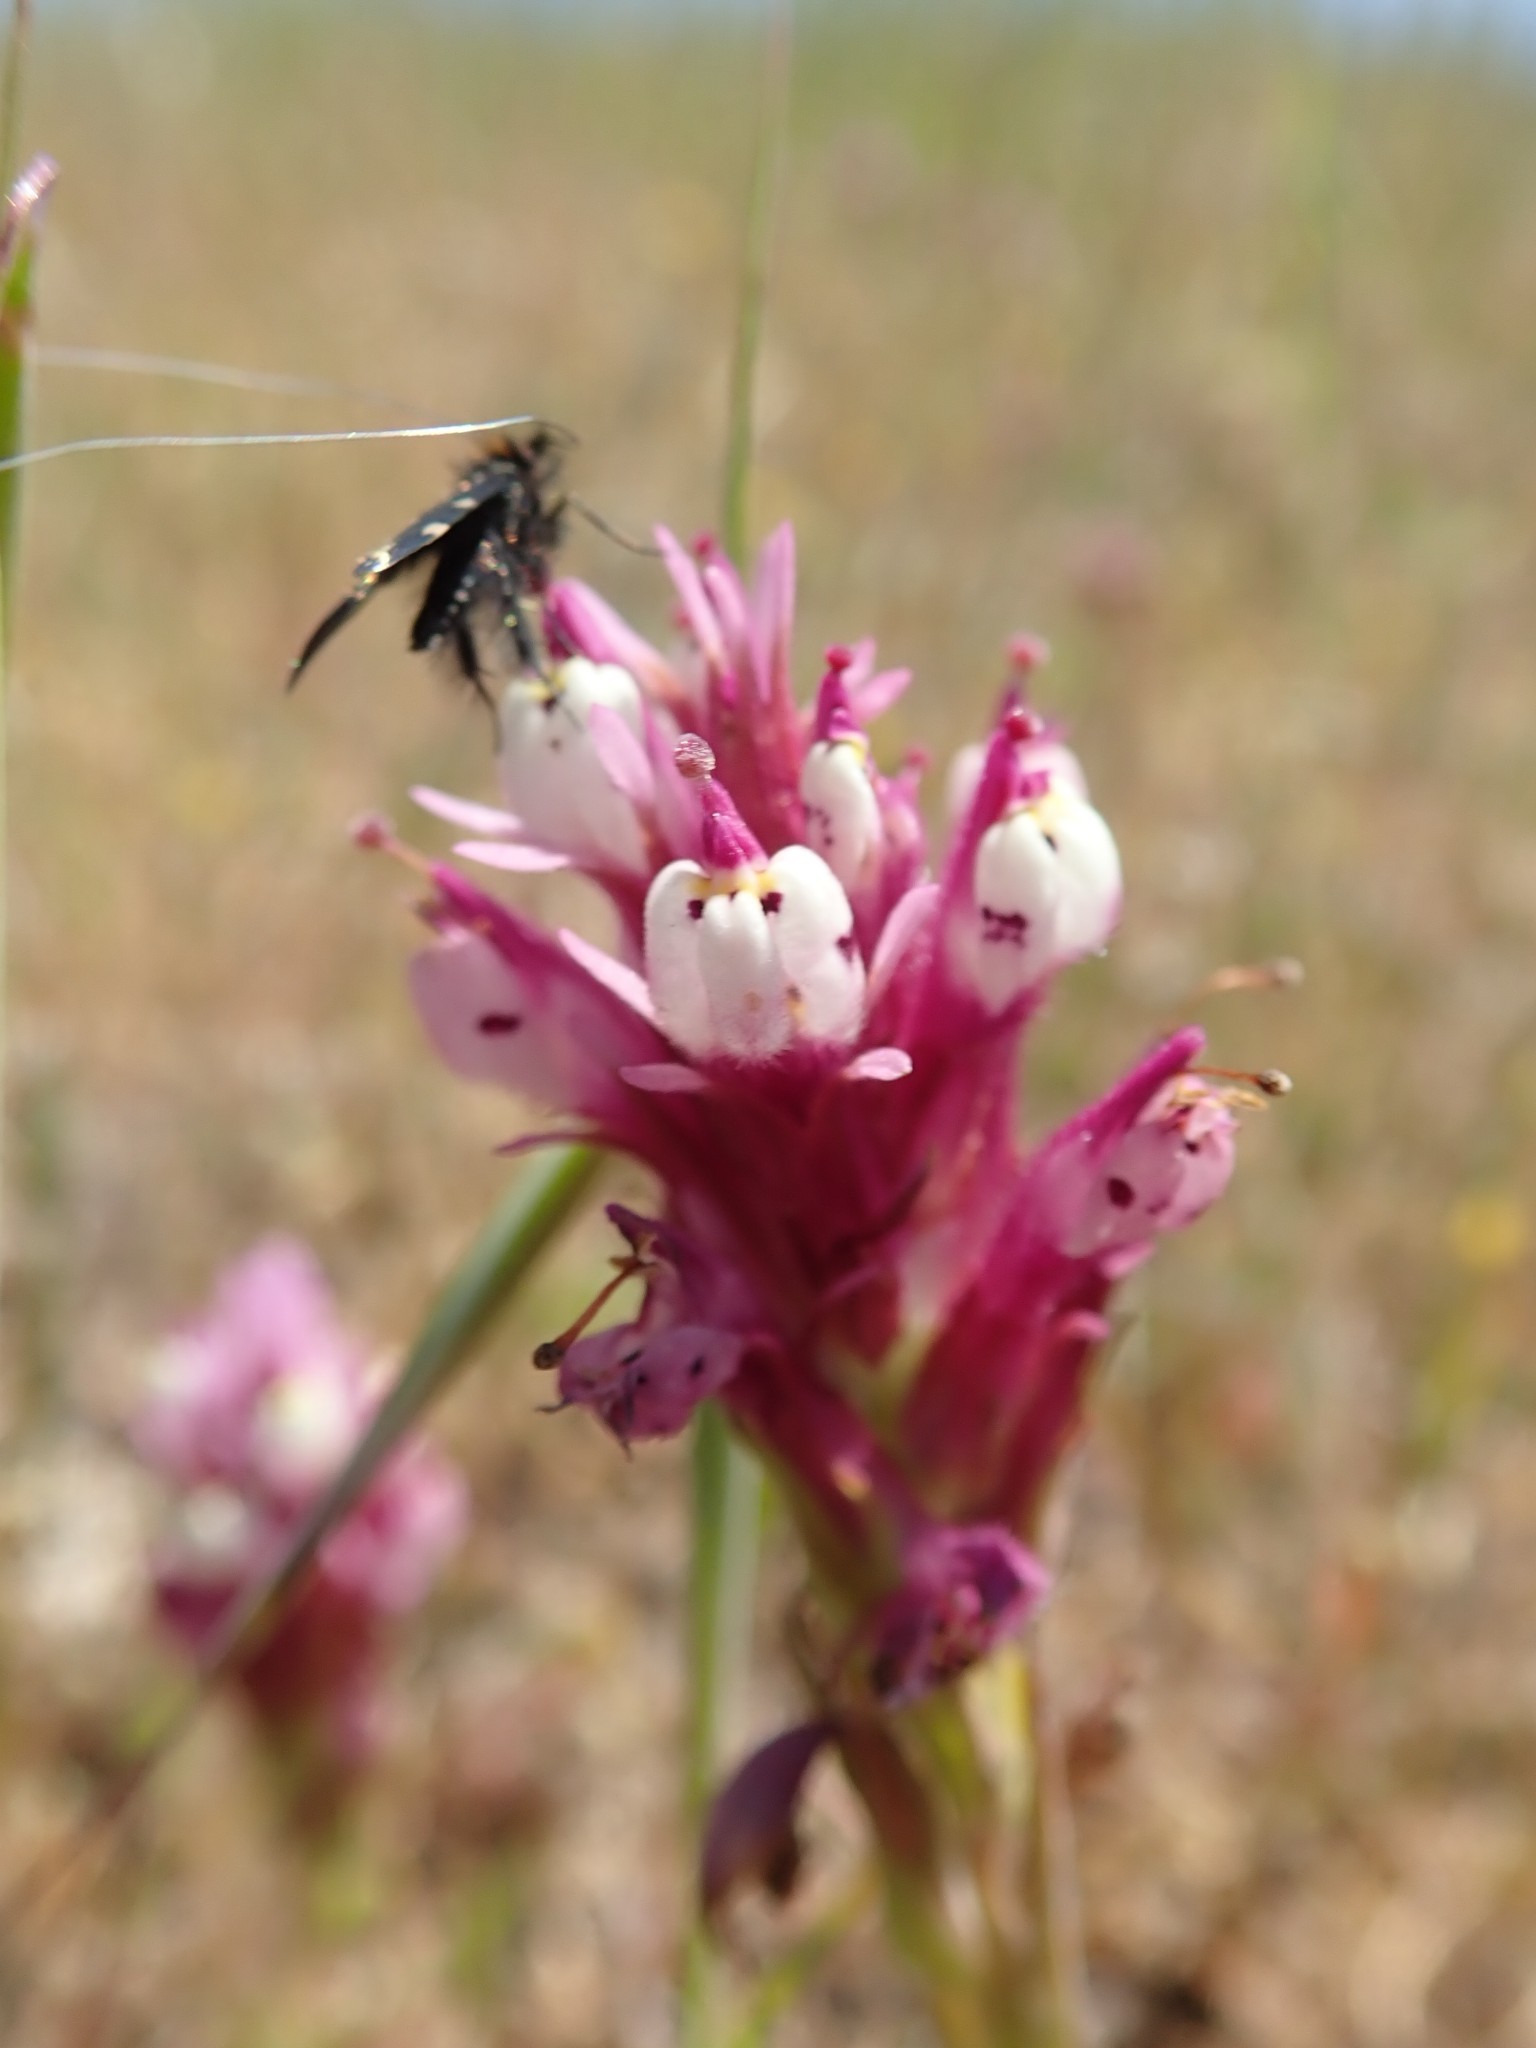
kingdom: Plantae
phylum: Tracheophyta
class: Magnoliopsida
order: Lamiales
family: Orobanchaceae
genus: Castilleja
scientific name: Castilleja densiflora
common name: Dense-flower indian paintbrush
